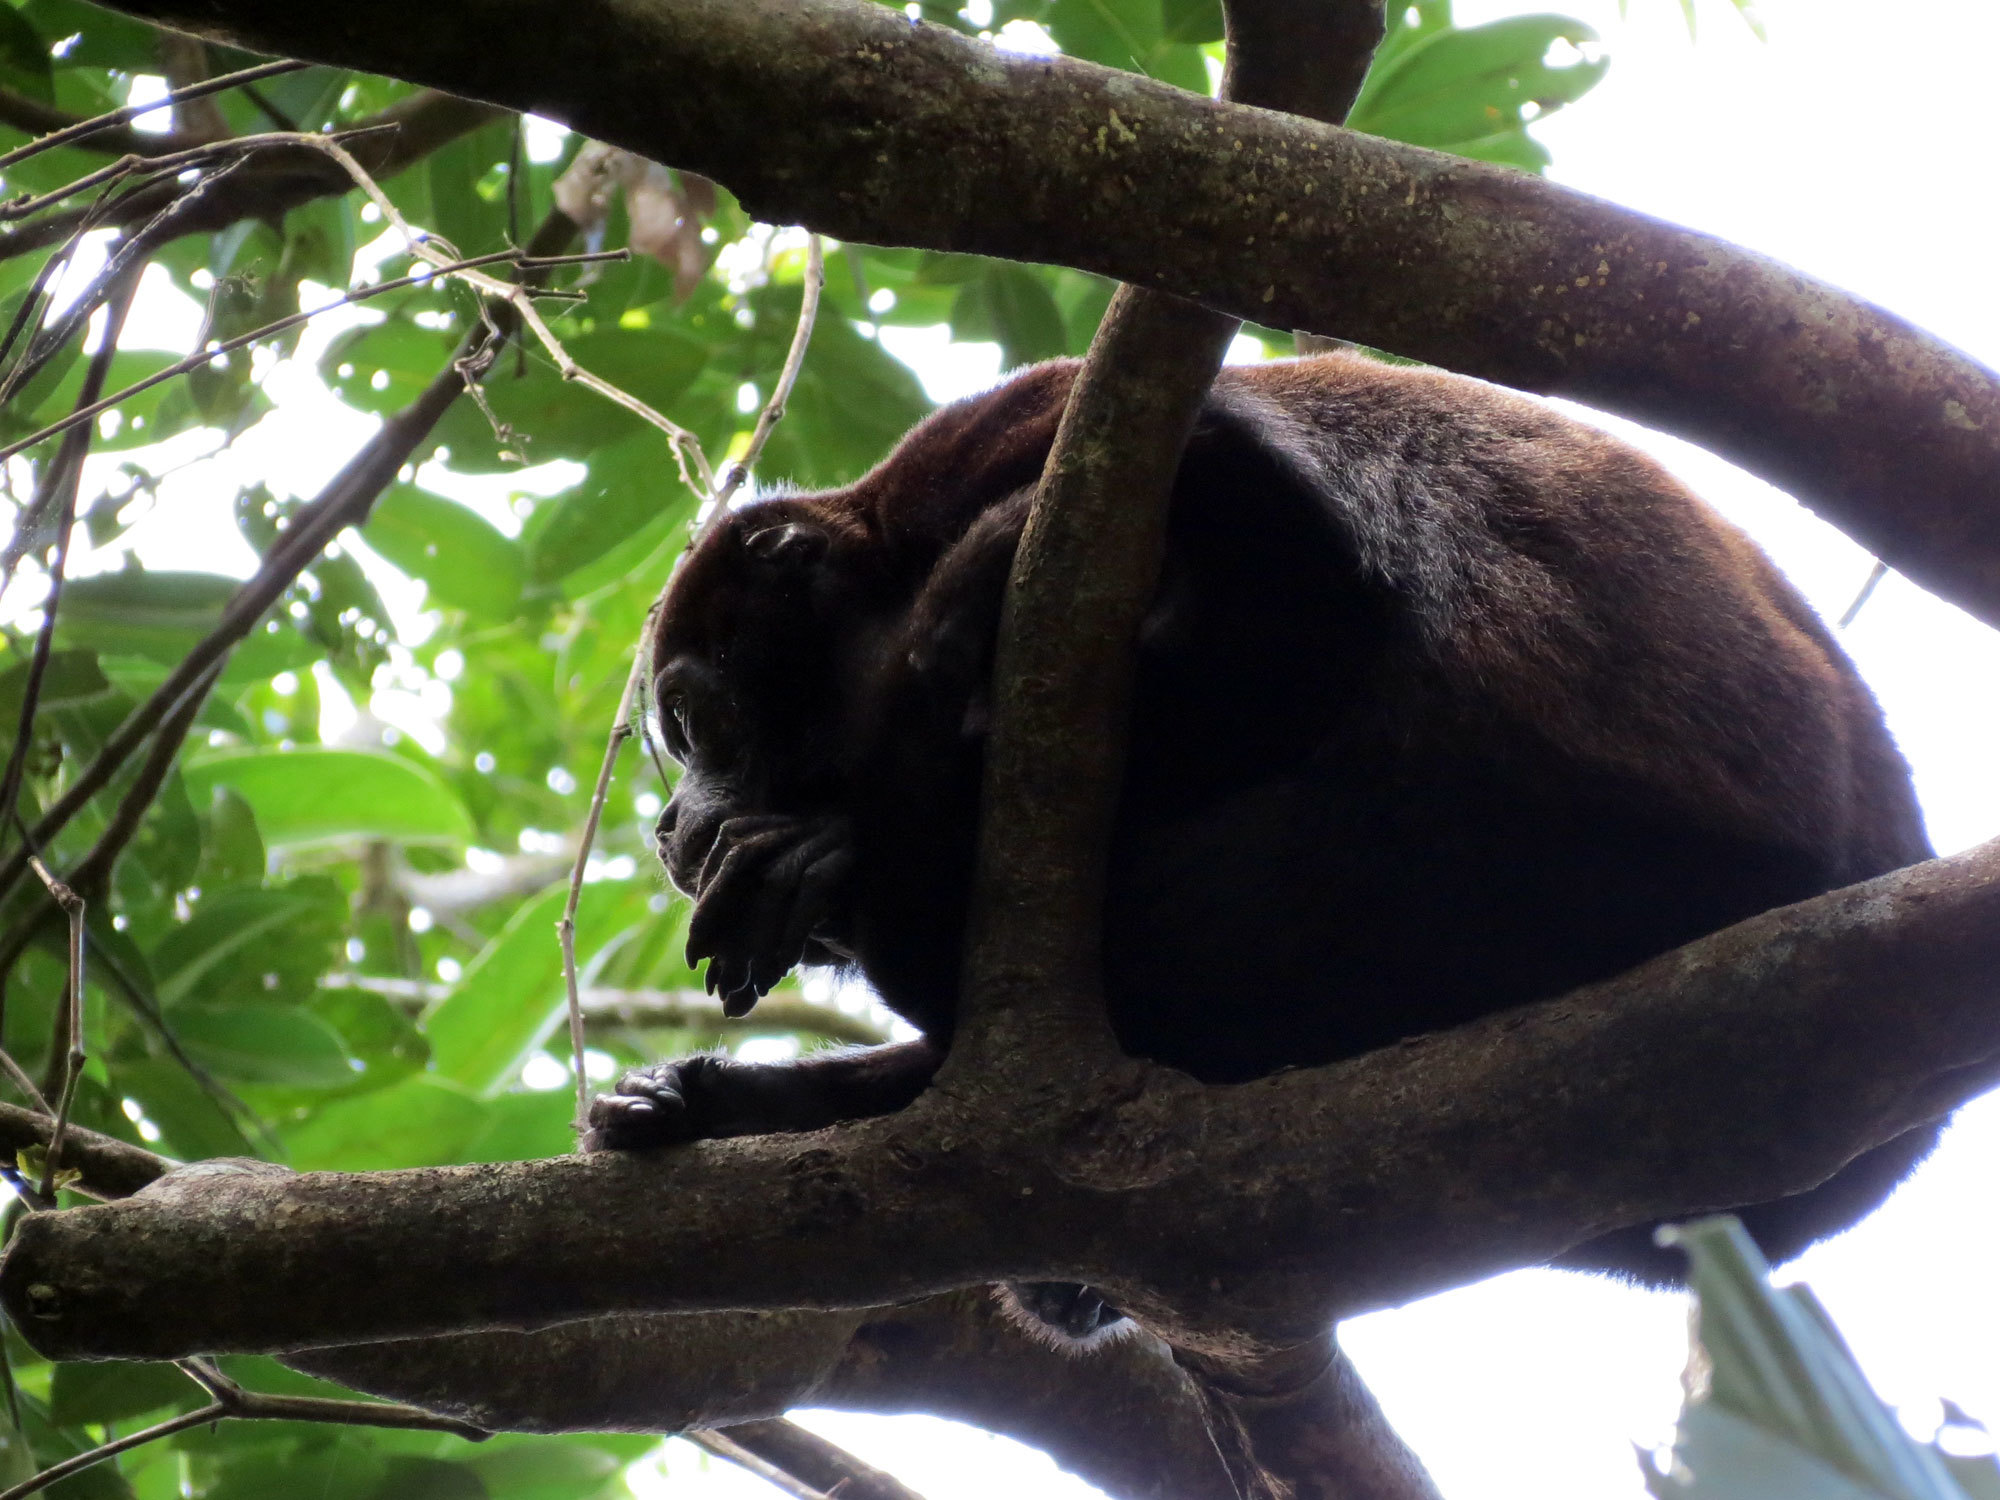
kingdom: Animalia
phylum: Chordata
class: Mammalia
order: Primates
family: Atelidae
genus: Alouatta
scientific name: Alouatta palliata
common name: Mantled howler
